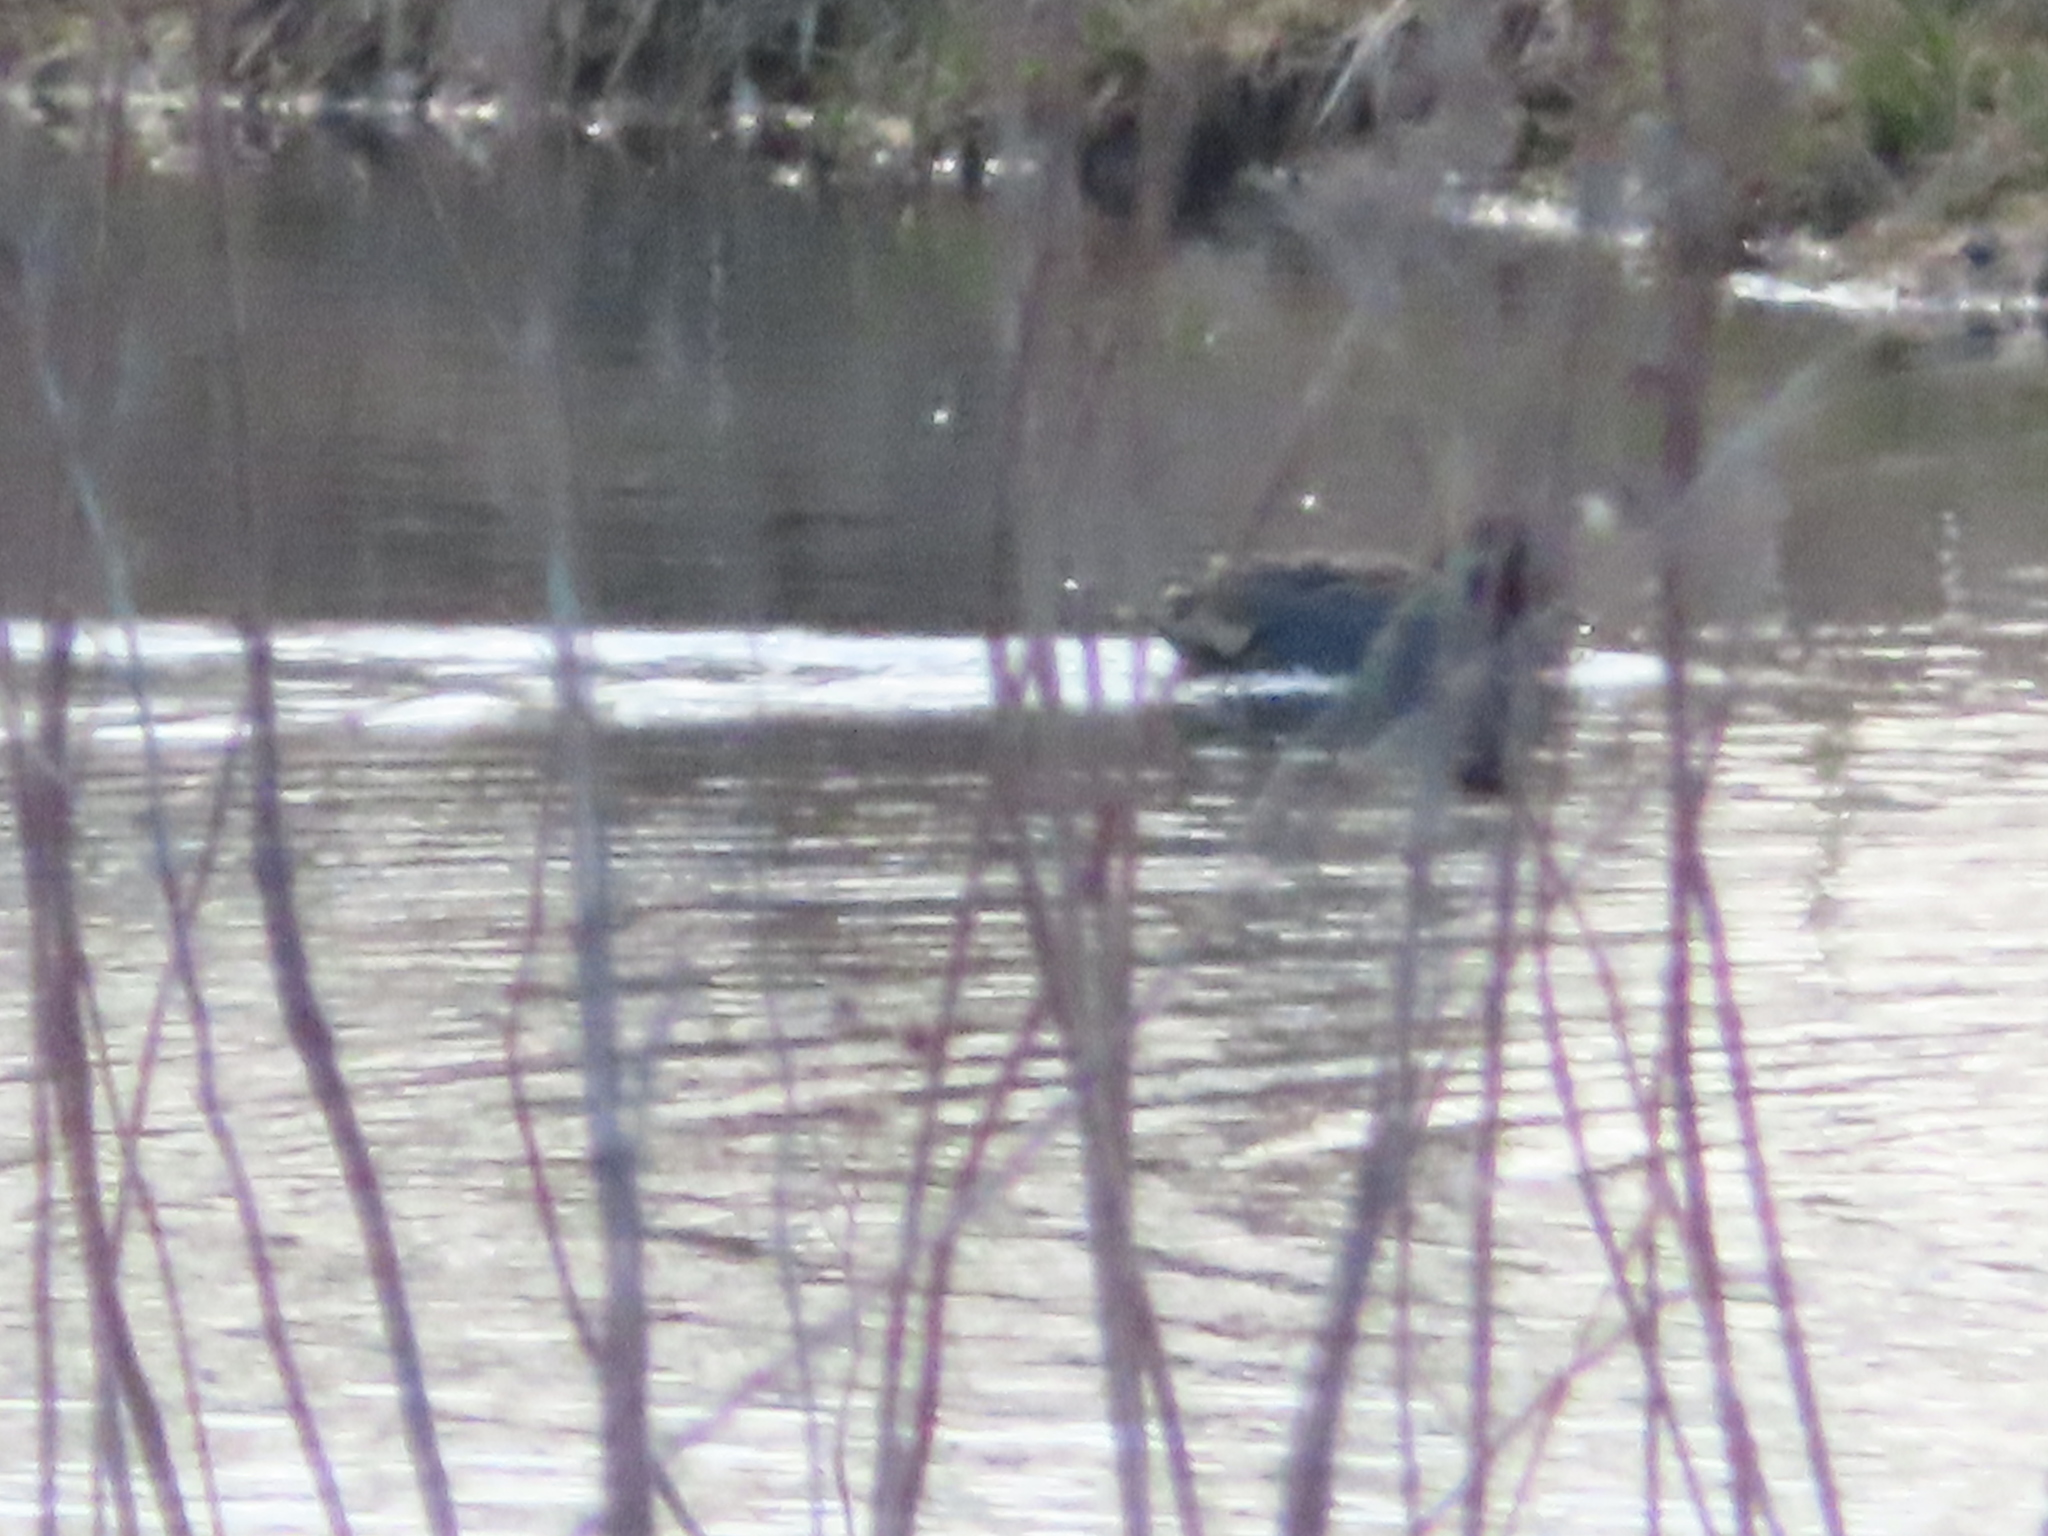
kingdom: Animalia
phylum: Chordata
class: Aves
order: Anseriformes
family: Anatidae
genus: Anas
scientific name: Anas crecca
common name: Eurasian teal
